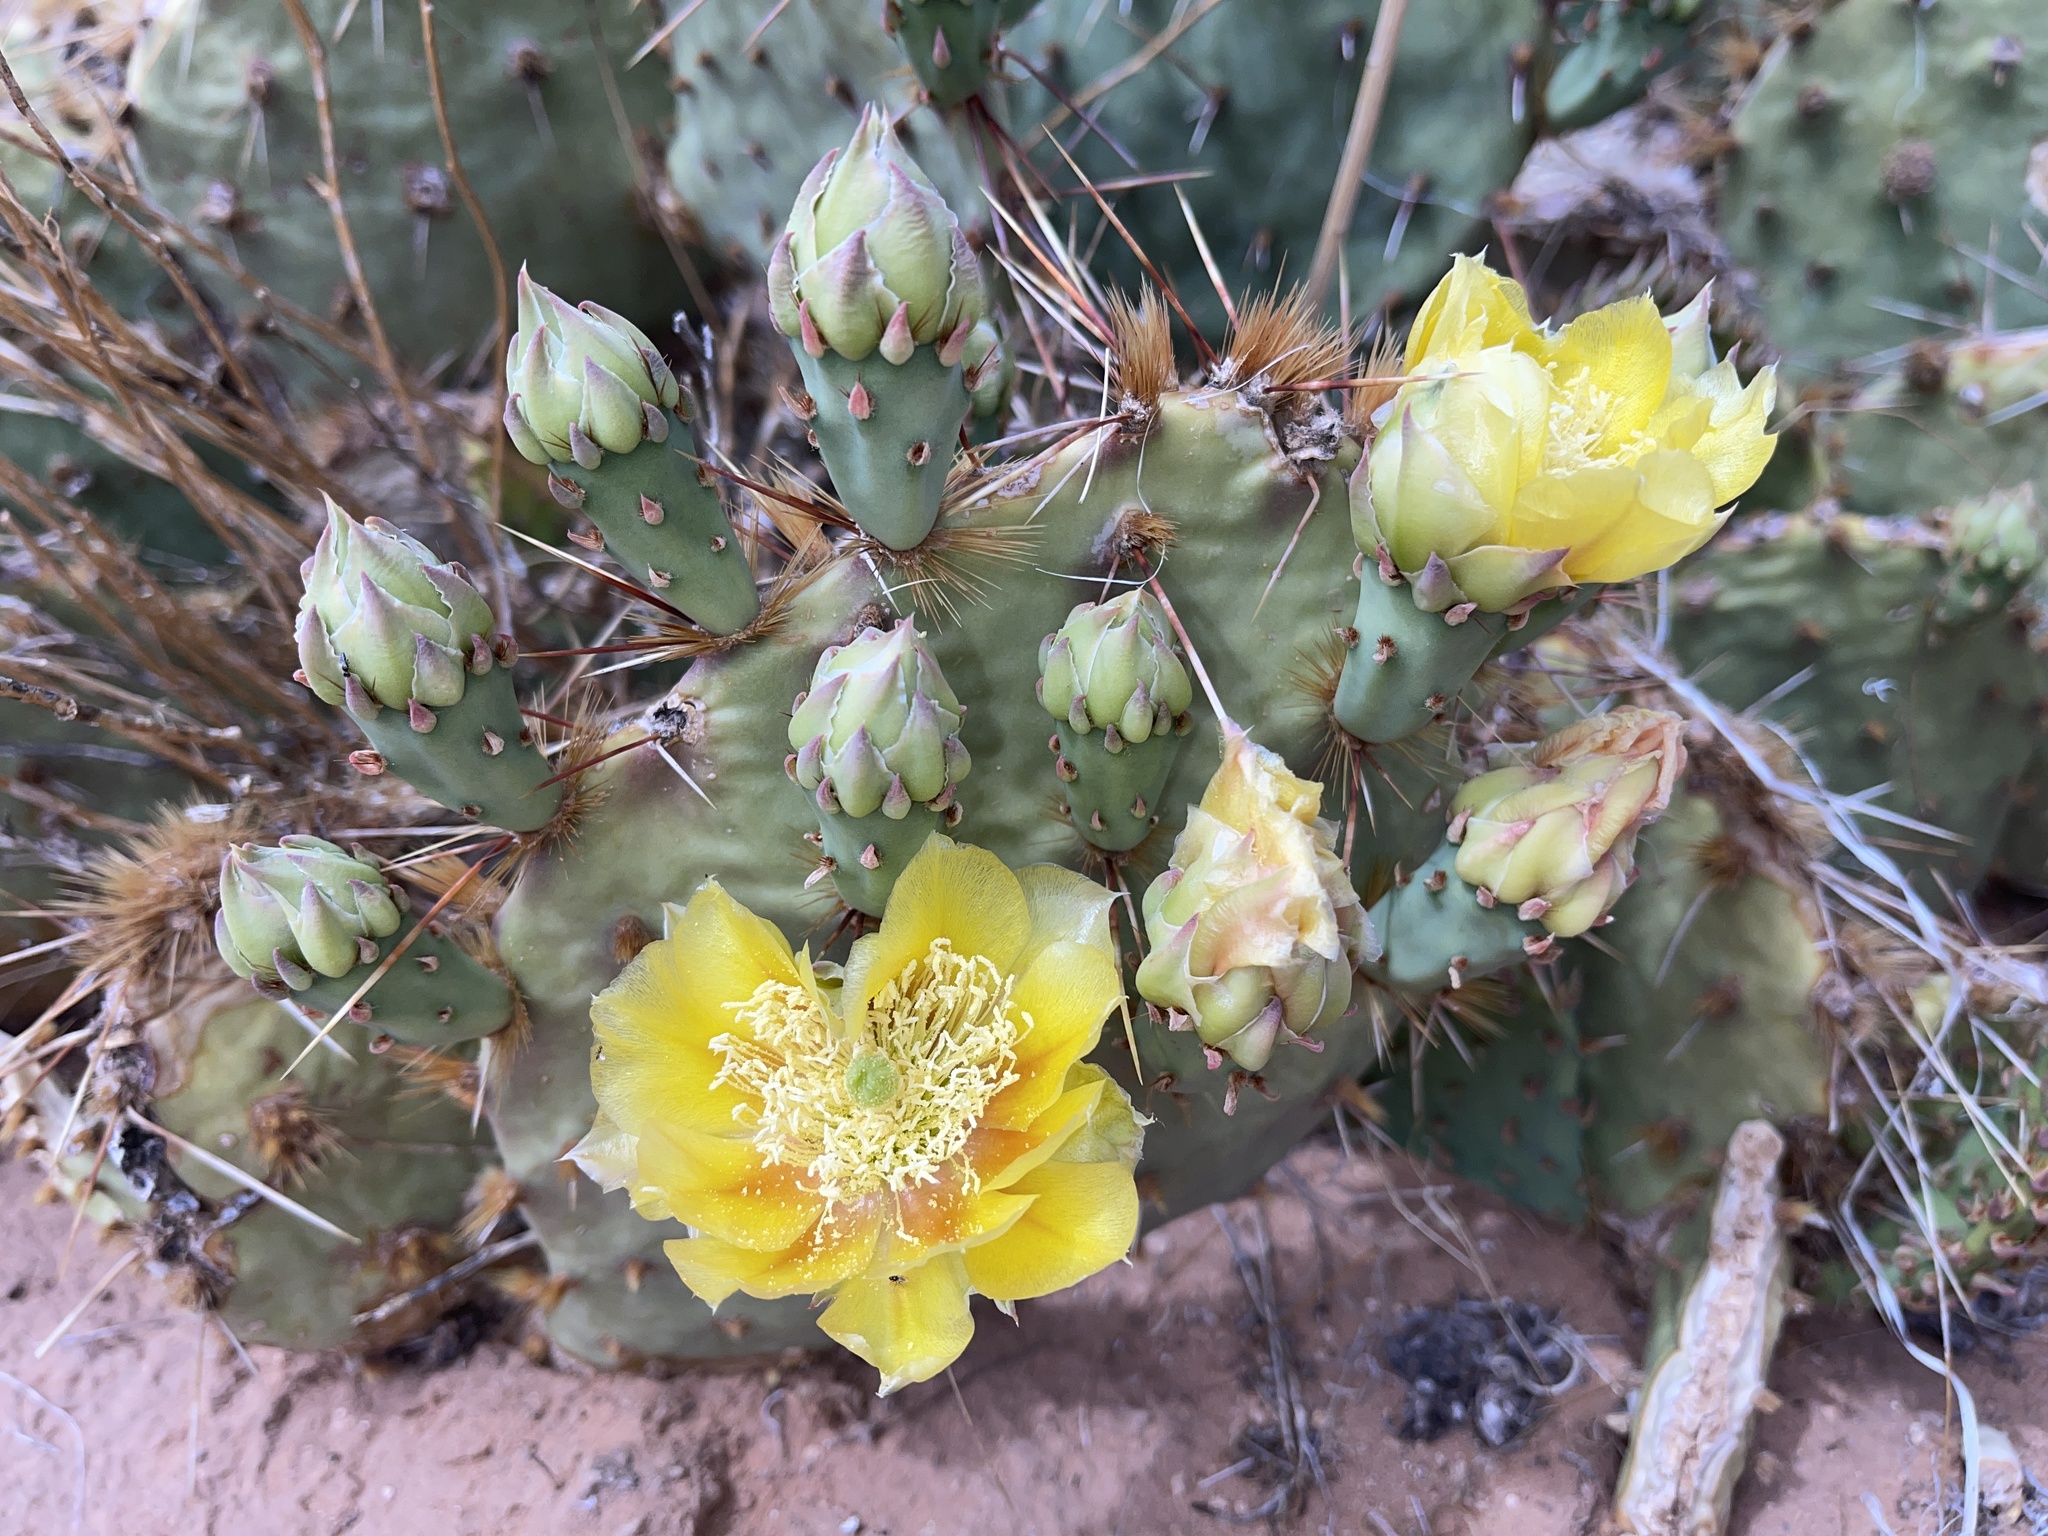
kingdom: Plantae
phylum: Tracheophyta
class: Magnoliopsida
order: Caryophyllales
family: Cactaceae
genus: Opuntia
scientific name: Opuntia phaeacantha
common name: New mexico prickly-pear
